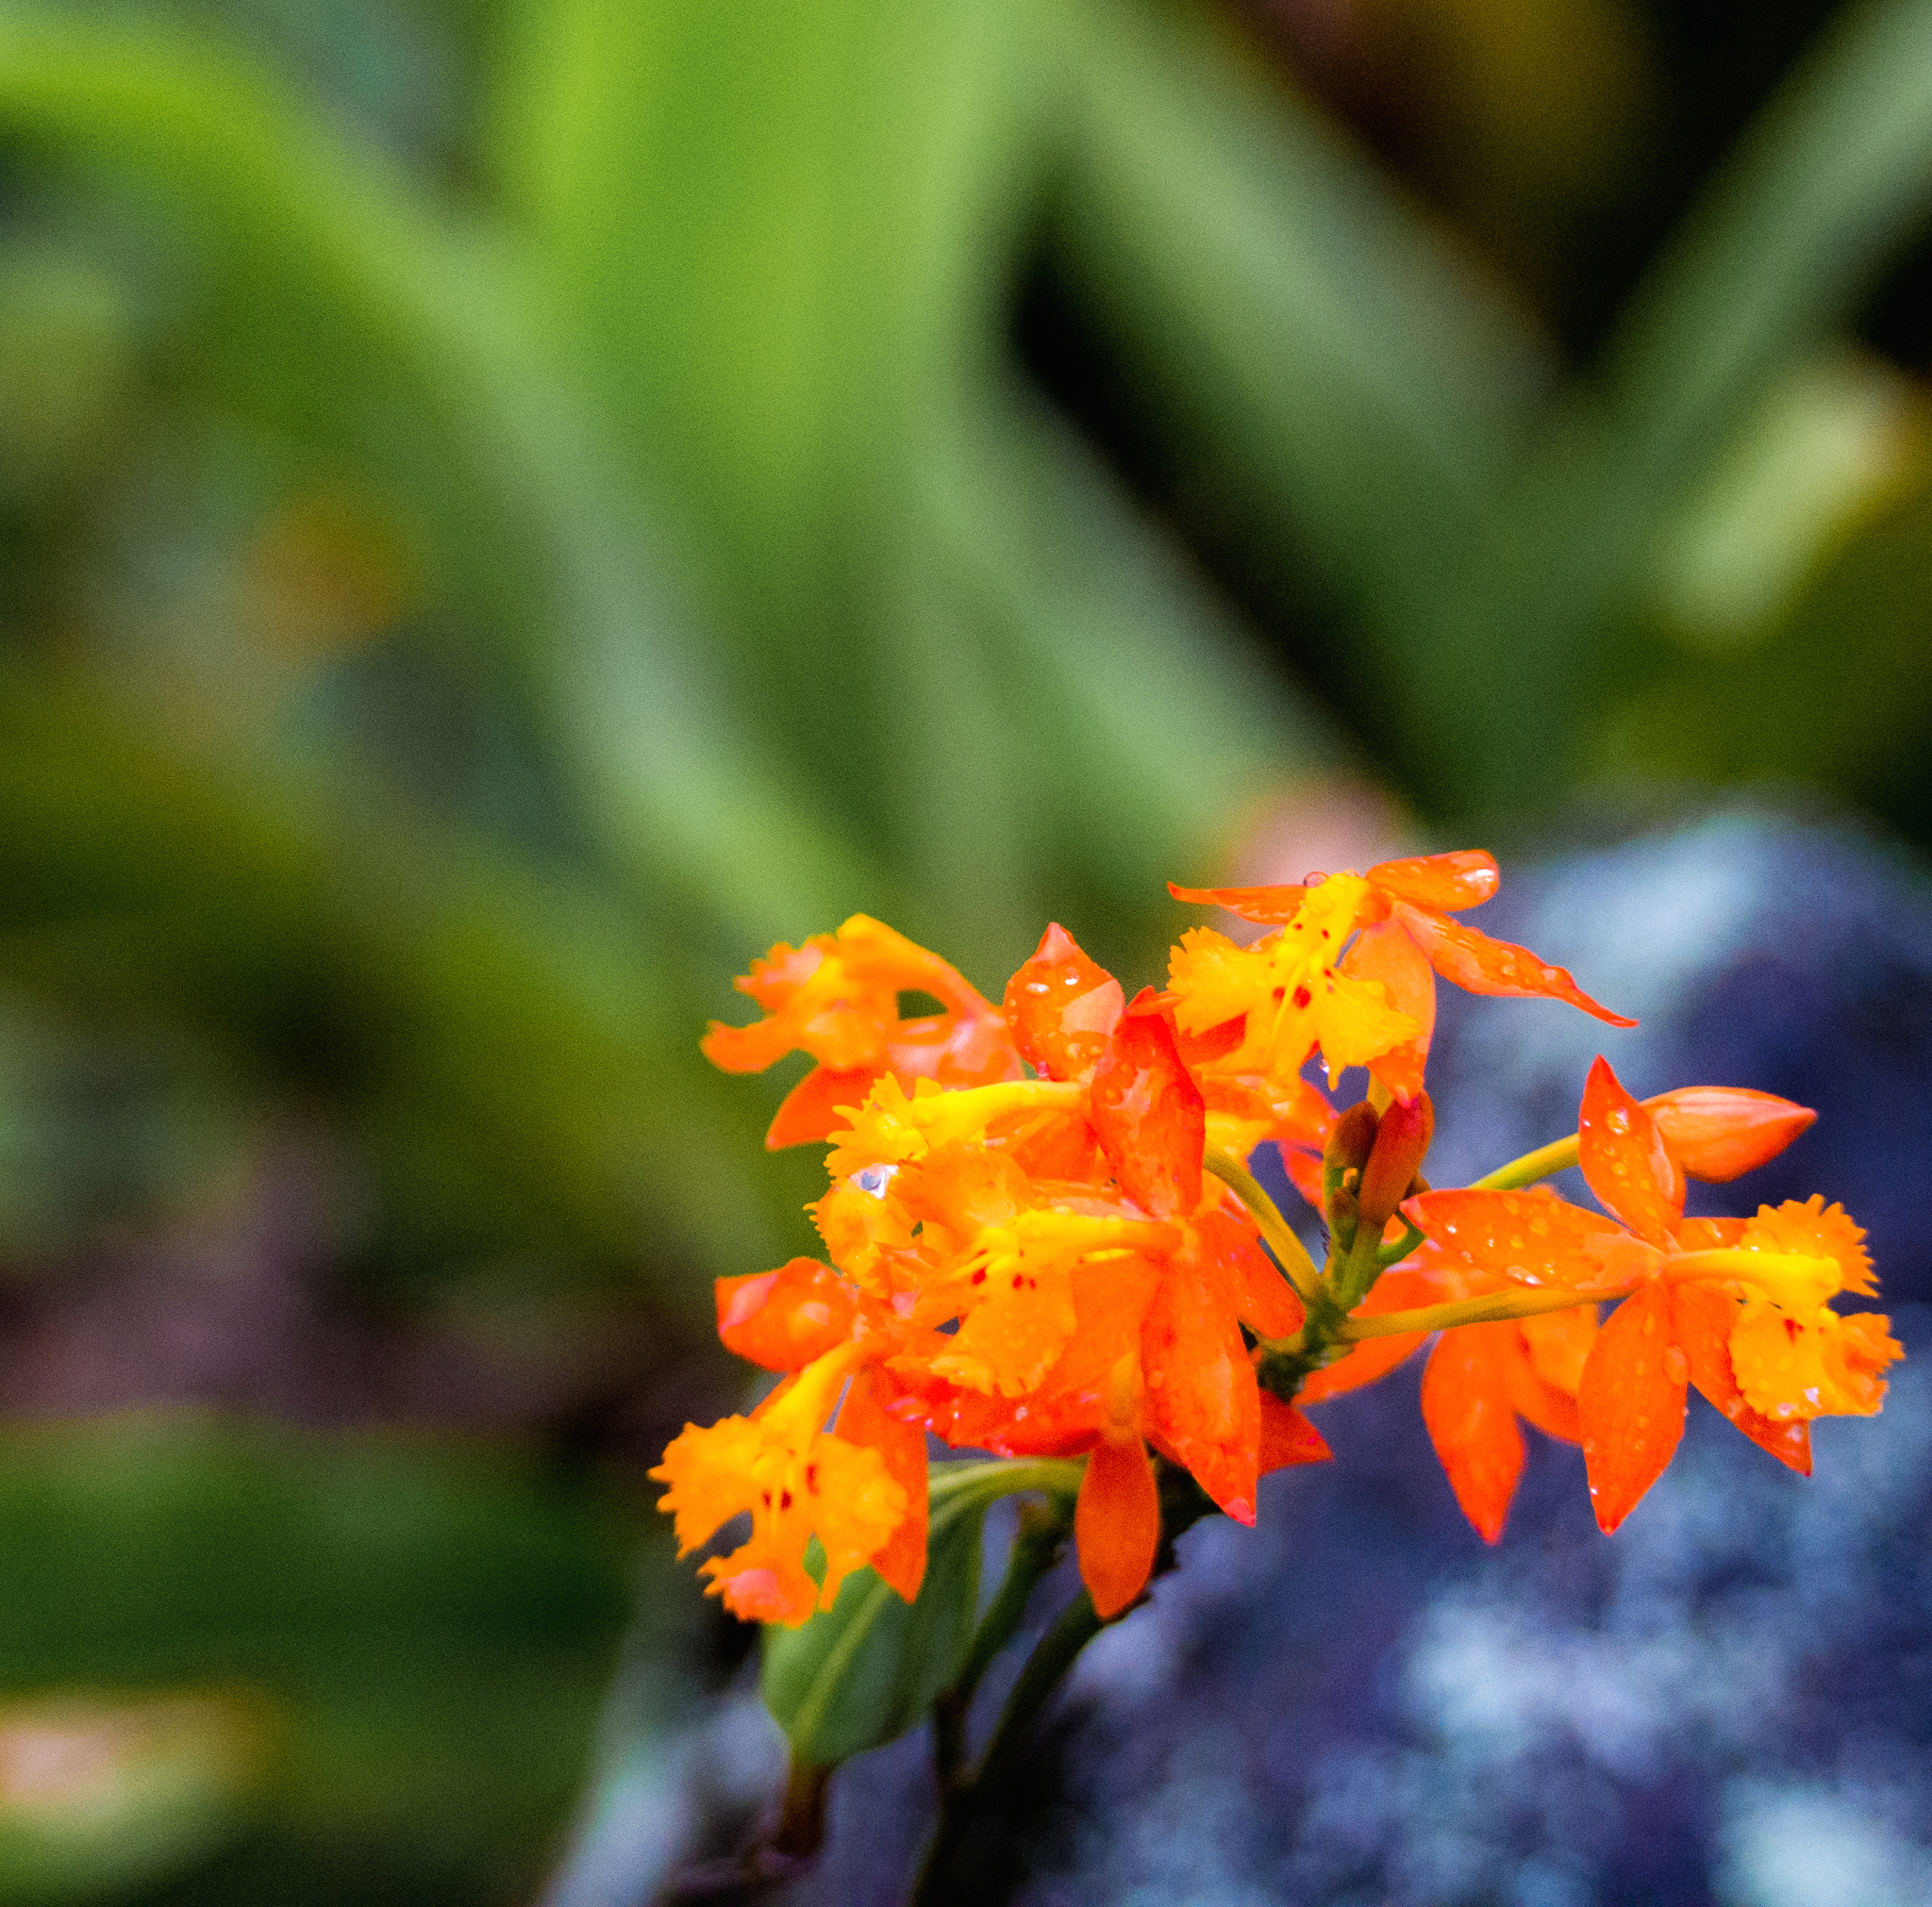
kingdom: Plantae
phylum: Tracheophyta
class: Liliopsida
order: Asparagales
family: Orchidaceae
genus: Epidendrum
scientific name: Epidendrum radicans
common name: Fire star orchid
